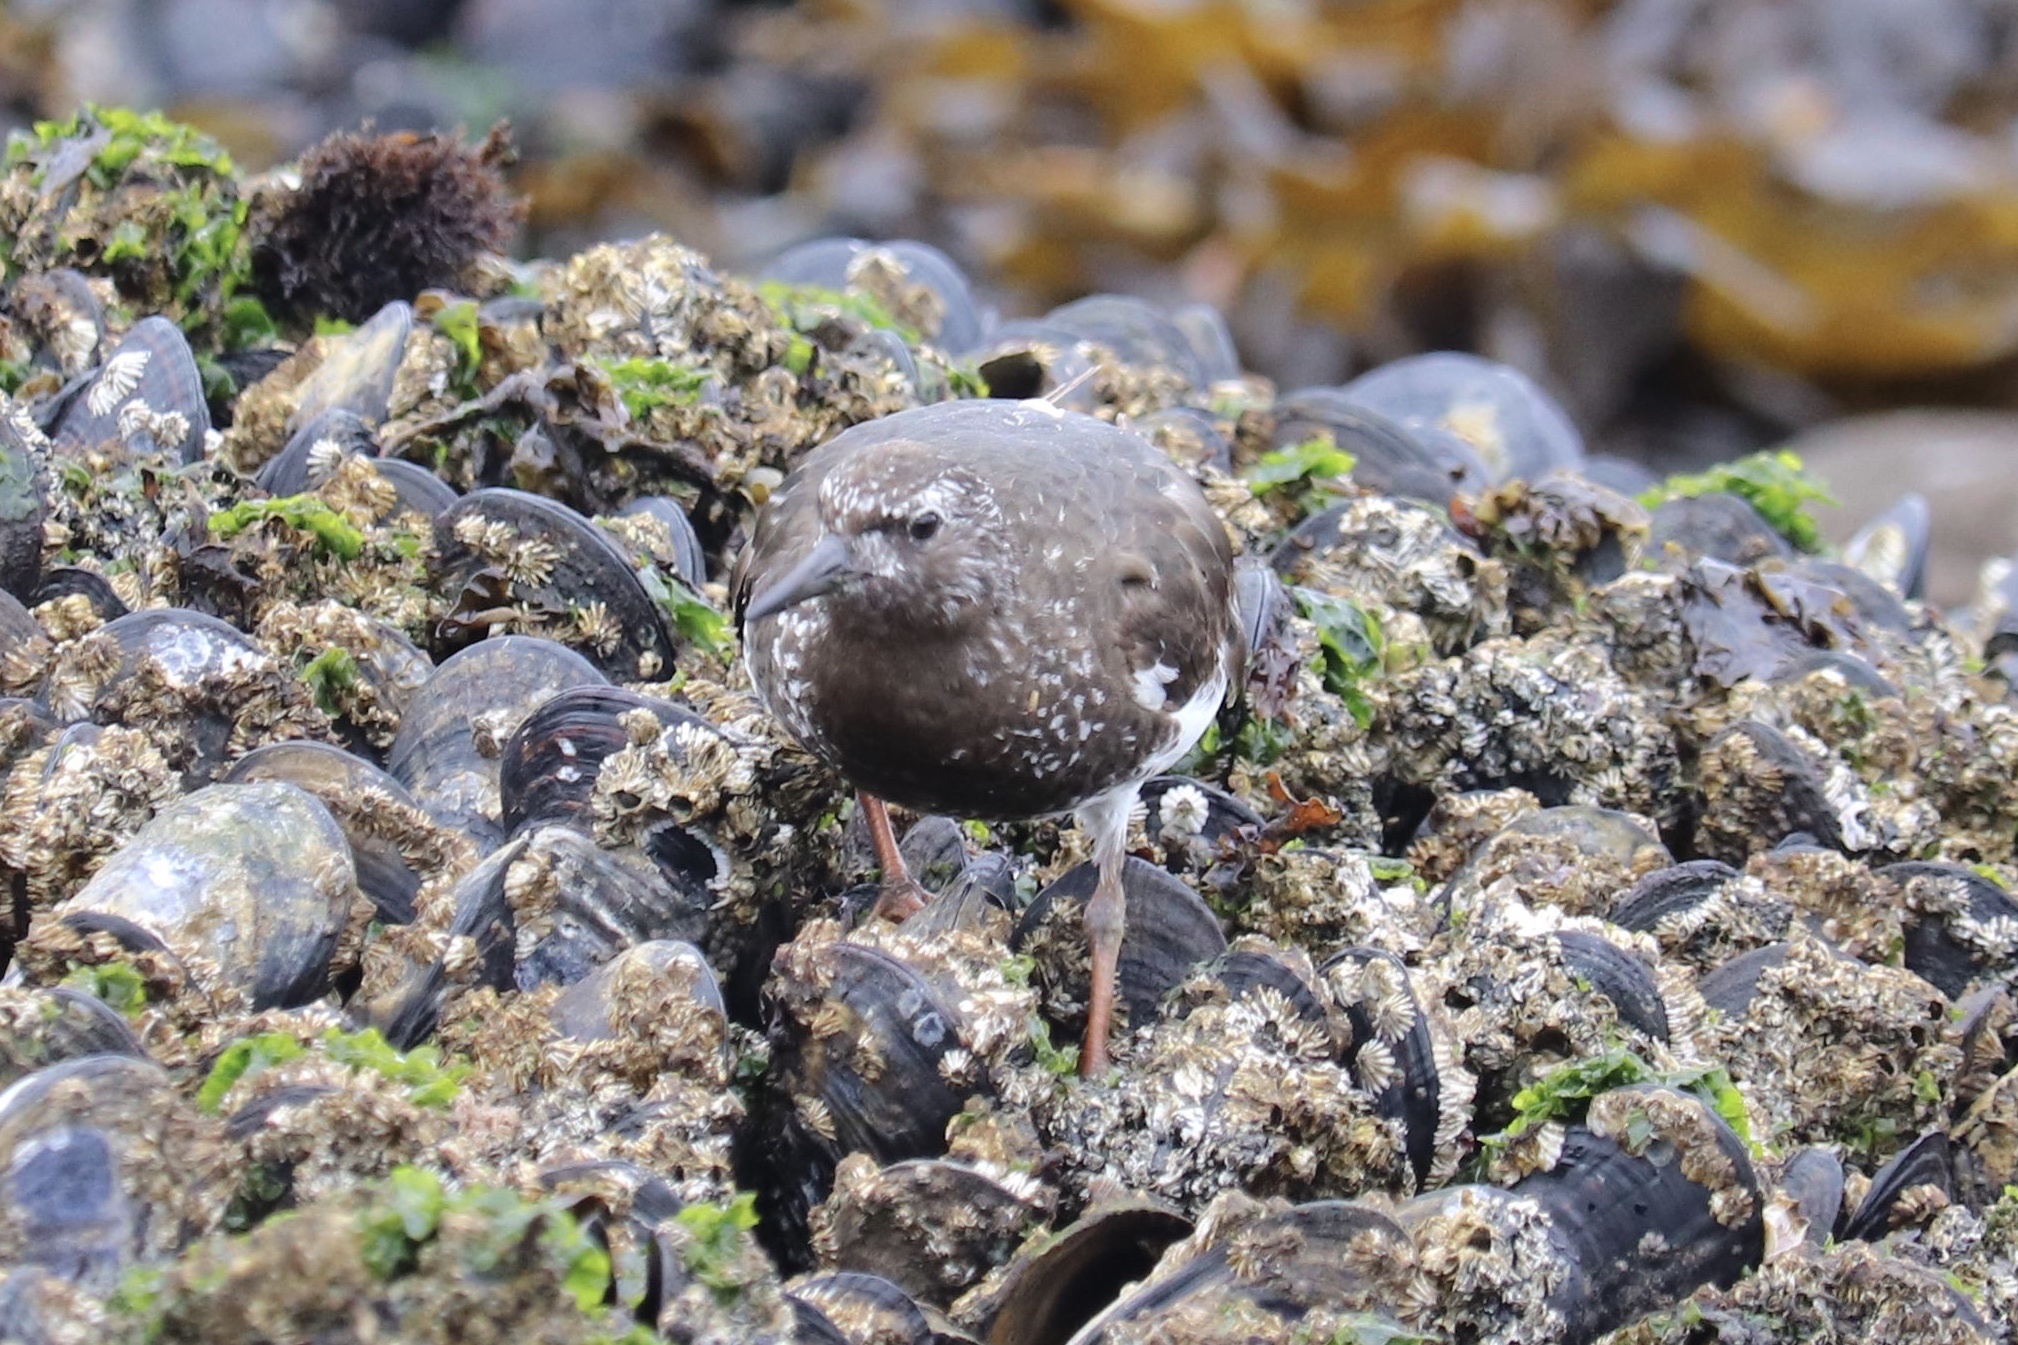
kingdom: Animalia
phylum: Chordata
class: Aves
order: Charadriiformes
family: Scolopacidae
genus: Arenaria
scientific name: Arenaria melanocephala
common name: Black turnstone
